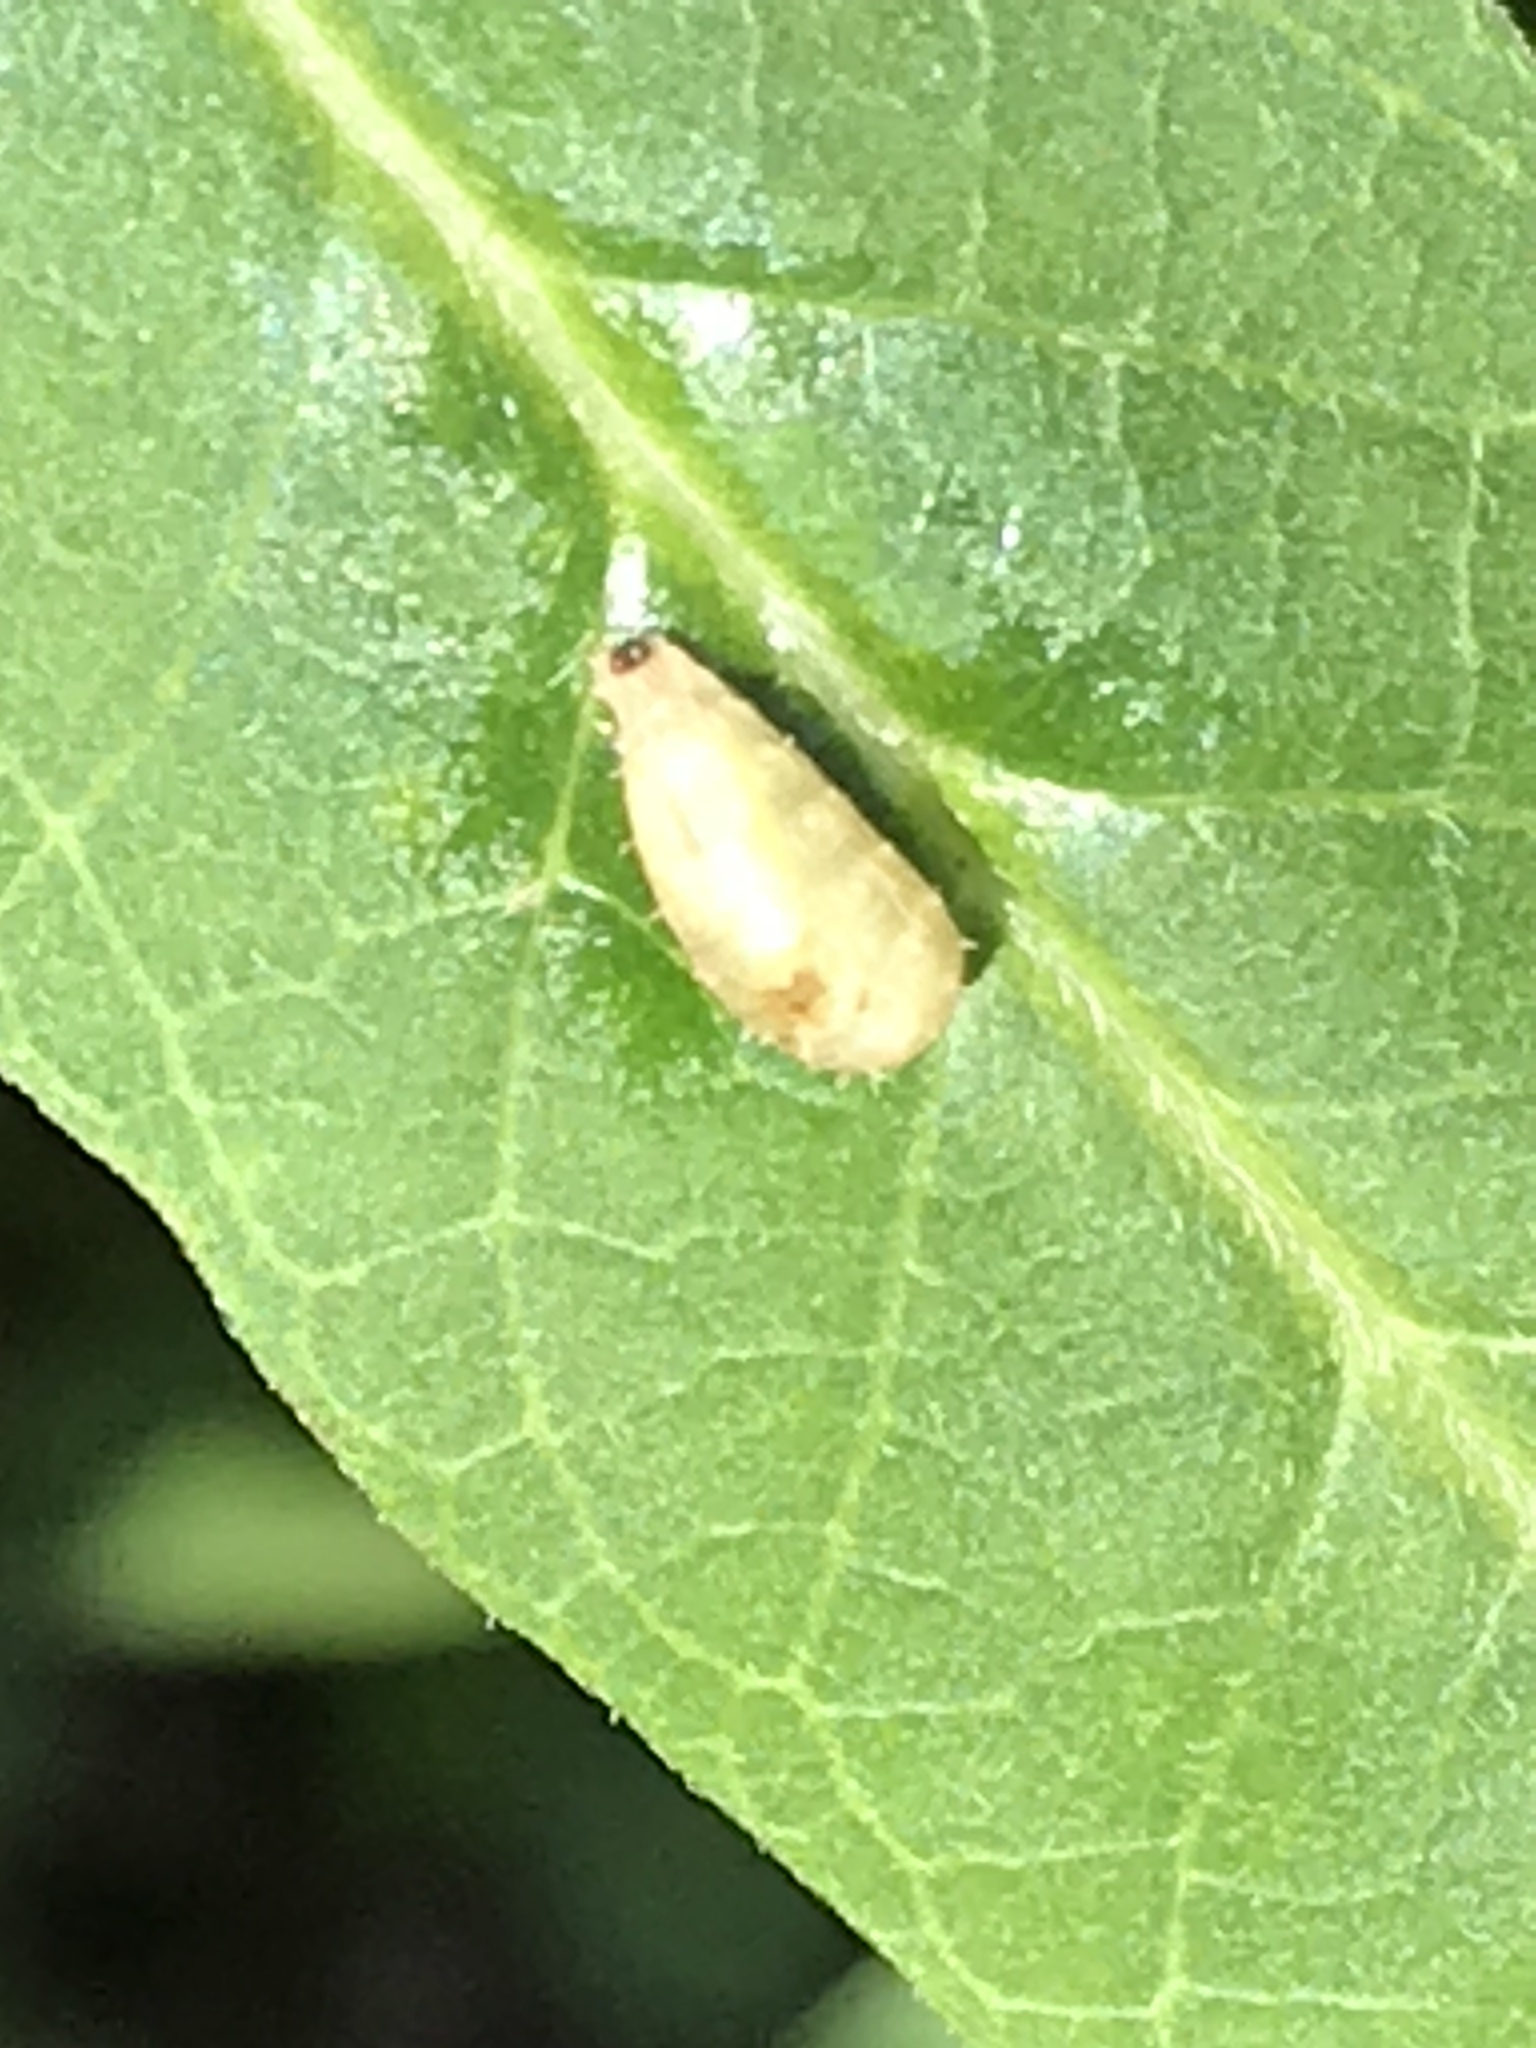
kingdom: Animalia
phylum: Arthropoda
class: Insecta
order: Diptera
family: Syrphidae
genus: Dioprosopa
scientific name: Dioprosopa clavatus
